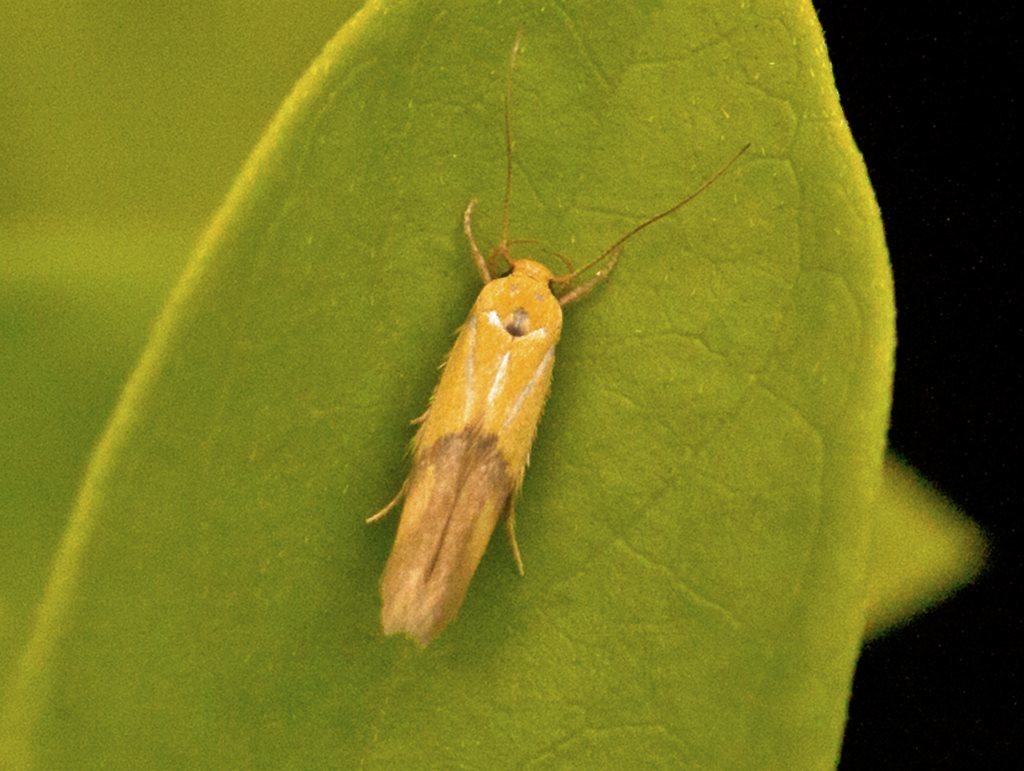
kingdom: Animalia
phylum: Arthropoda
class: Insecta
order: Lepidoptera
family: Stathmopodidae
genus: Stathmopoda
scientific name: Stathmopoda auriferella
